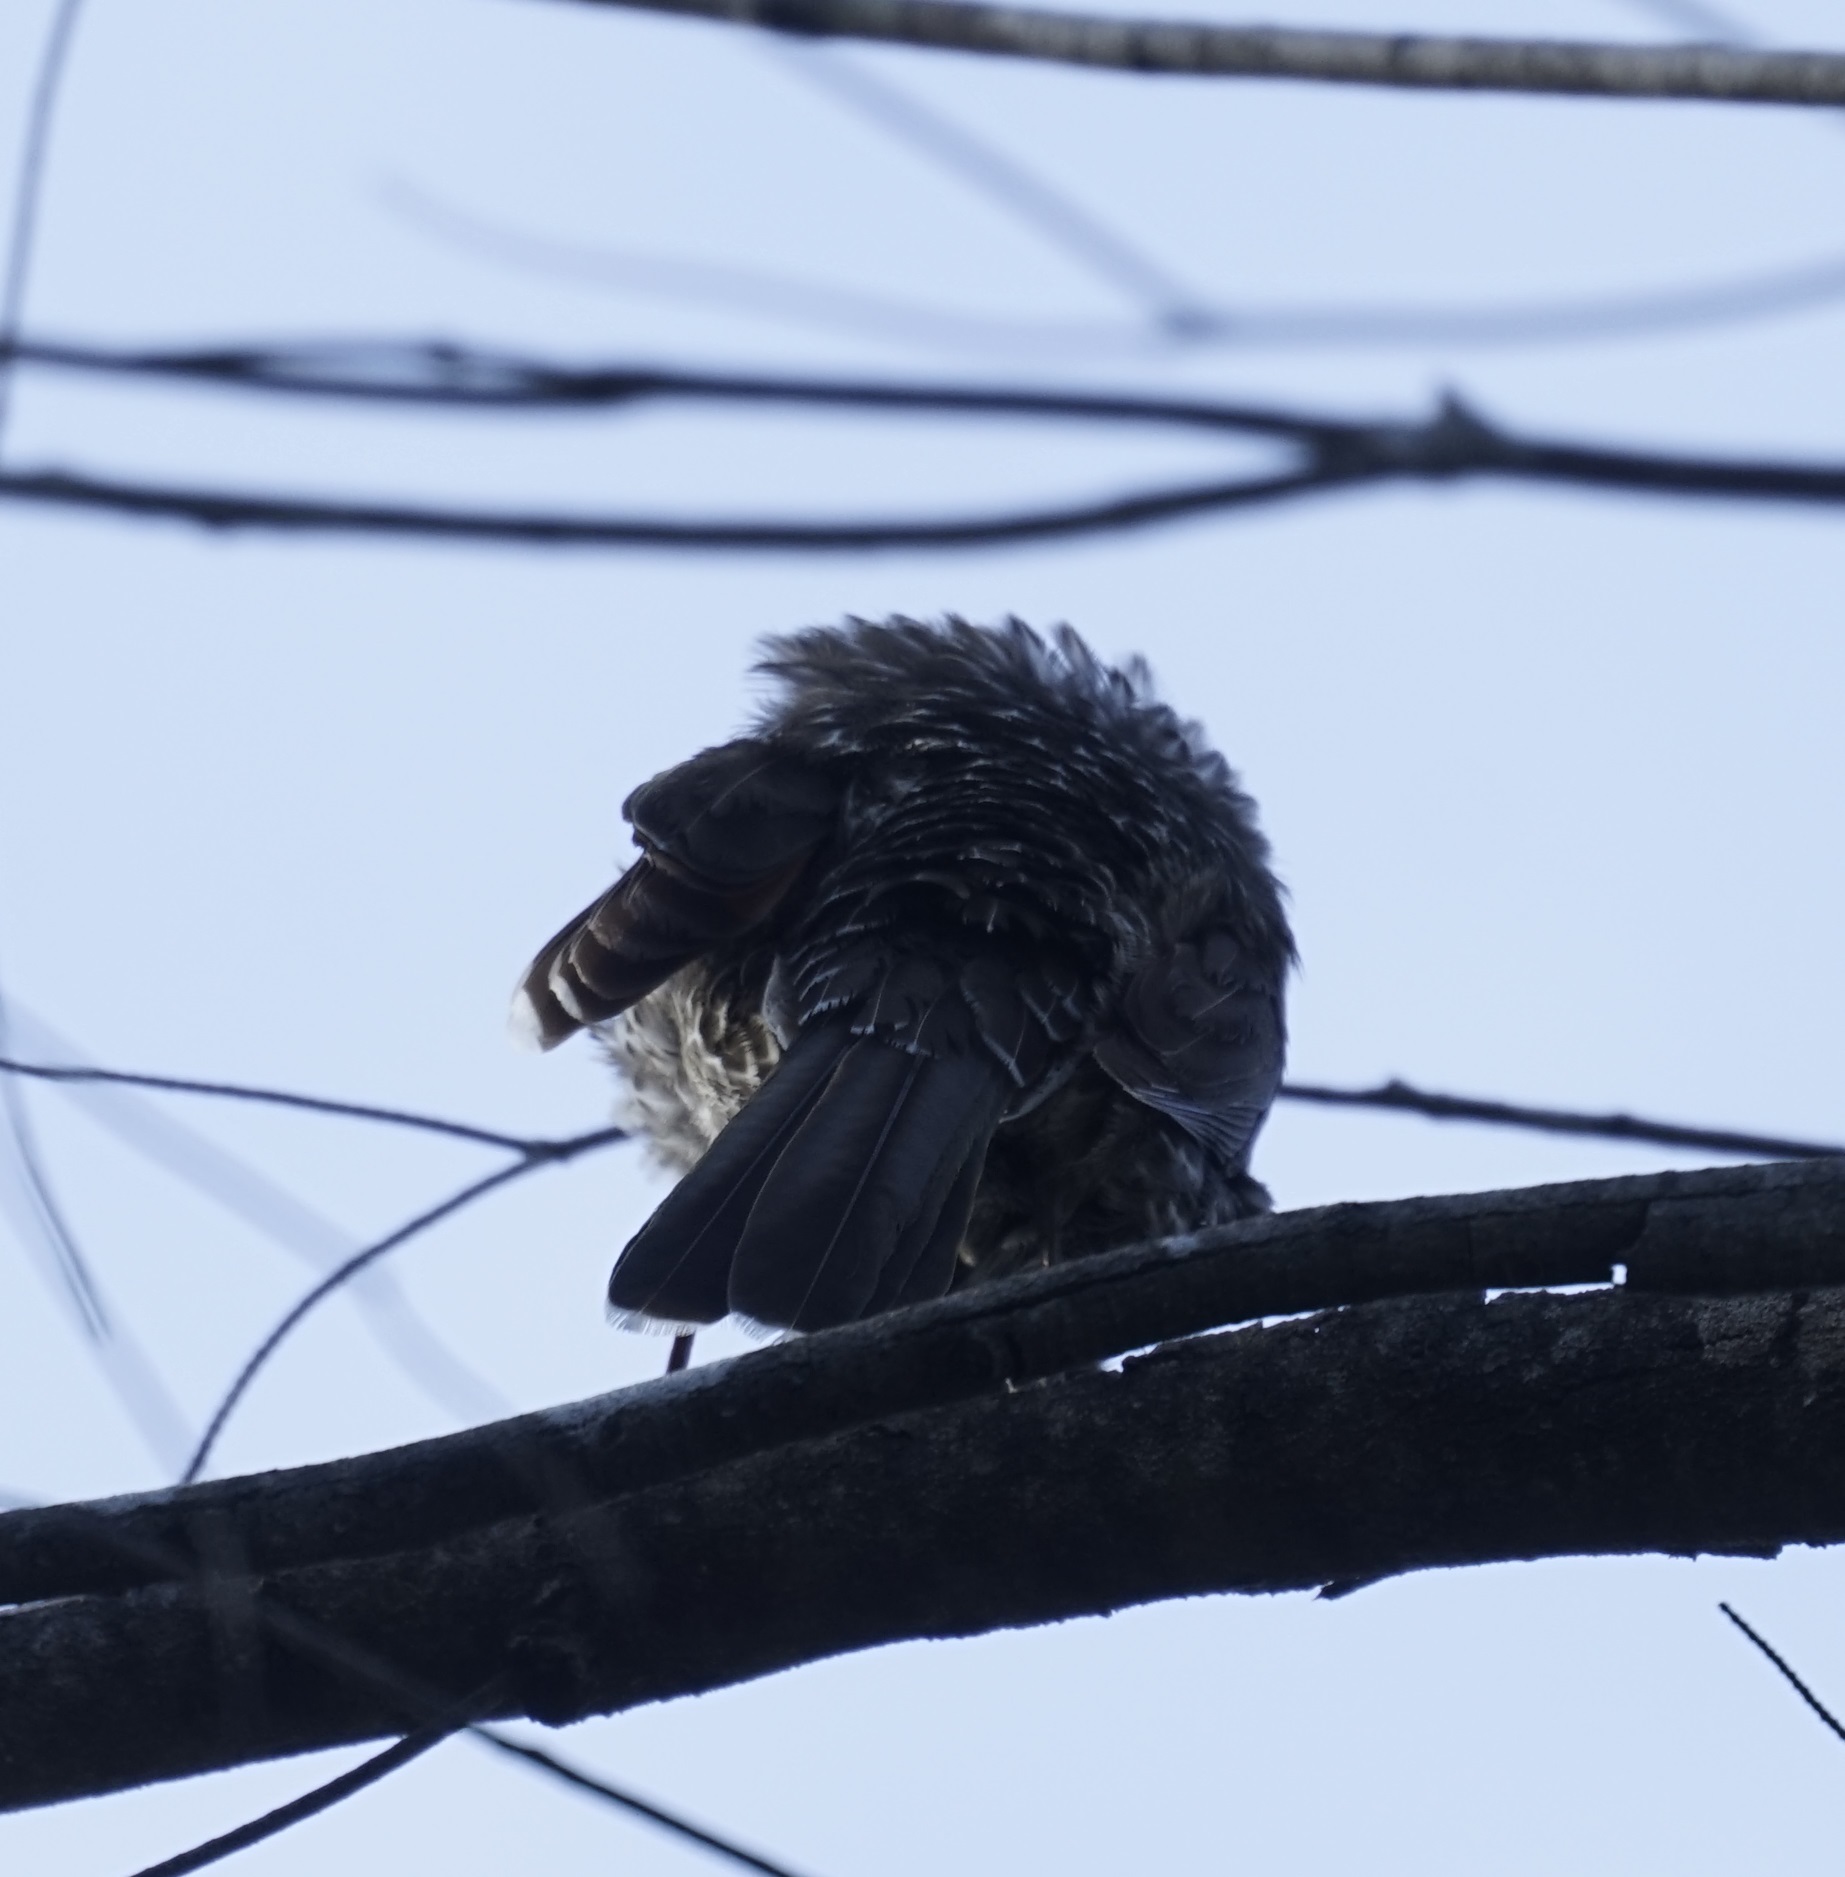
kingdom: Animalia
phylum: Chordata
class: Aves
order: Passeriformes
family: Meliphagidae
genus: Anthochaera
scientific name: Anthochaera chrysoptera
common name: Little wattlebird
